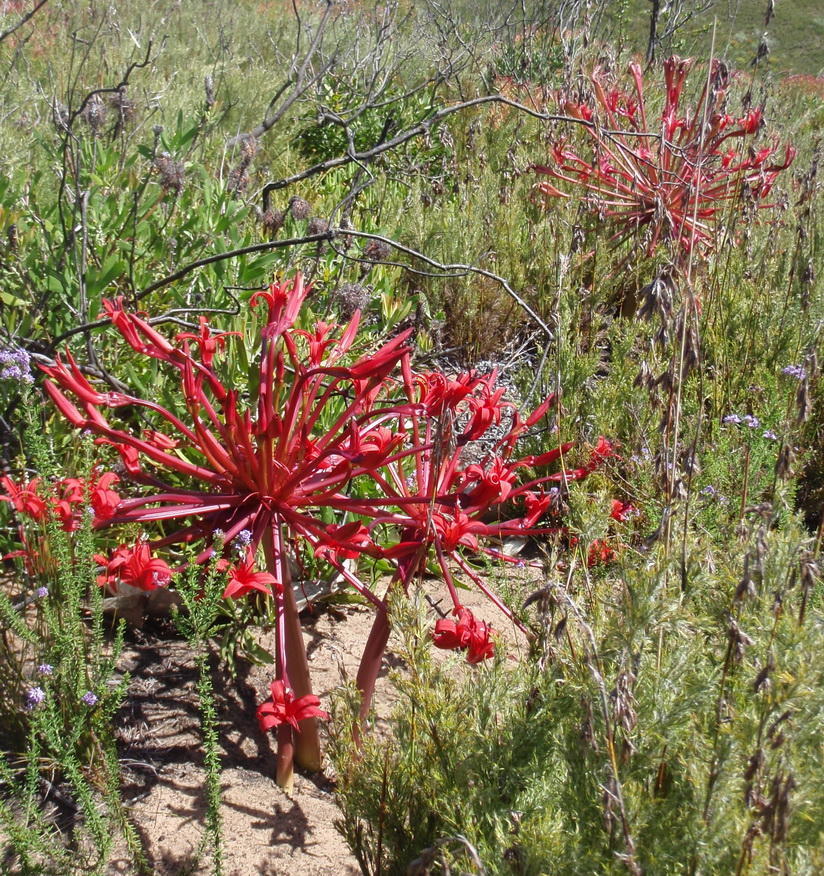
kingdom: Plantae
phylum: Tracheophyta
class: Liliopsida
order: Asparagales
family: Amaryllidaceae
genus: Brunsvigia
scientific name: Brunsvigia orientalis
